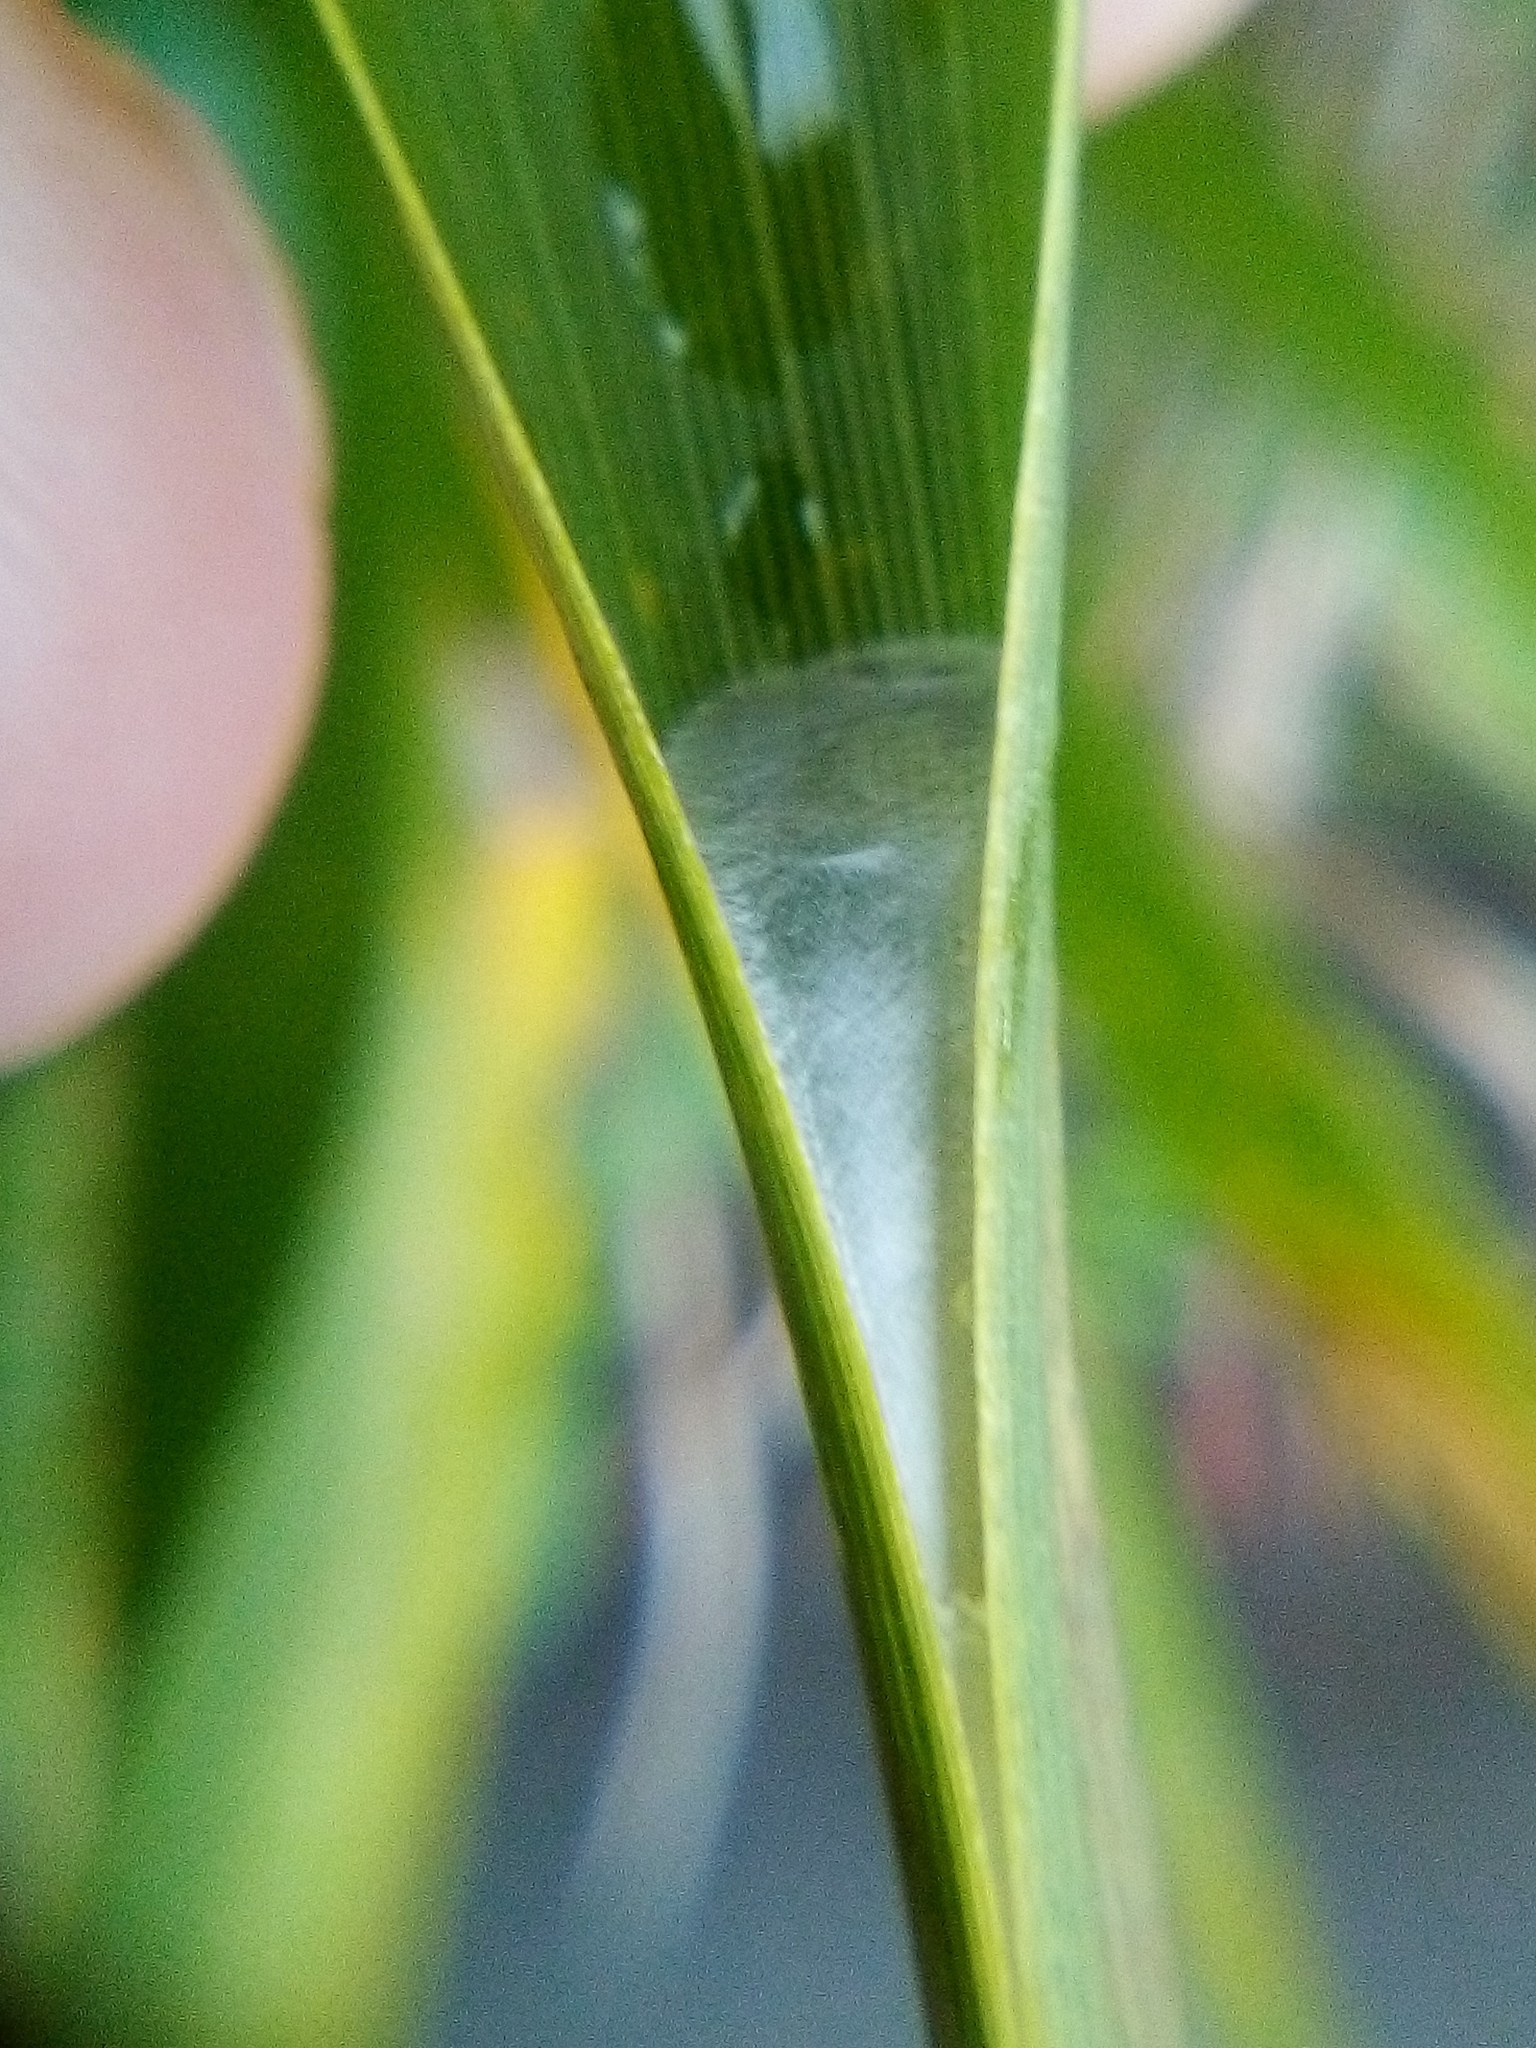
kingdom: Animalia
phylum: Arthropoda
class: Insecta
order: Lepidoptera
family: Tortricidae
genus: Catamacta
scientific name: Catamacta lotinana
